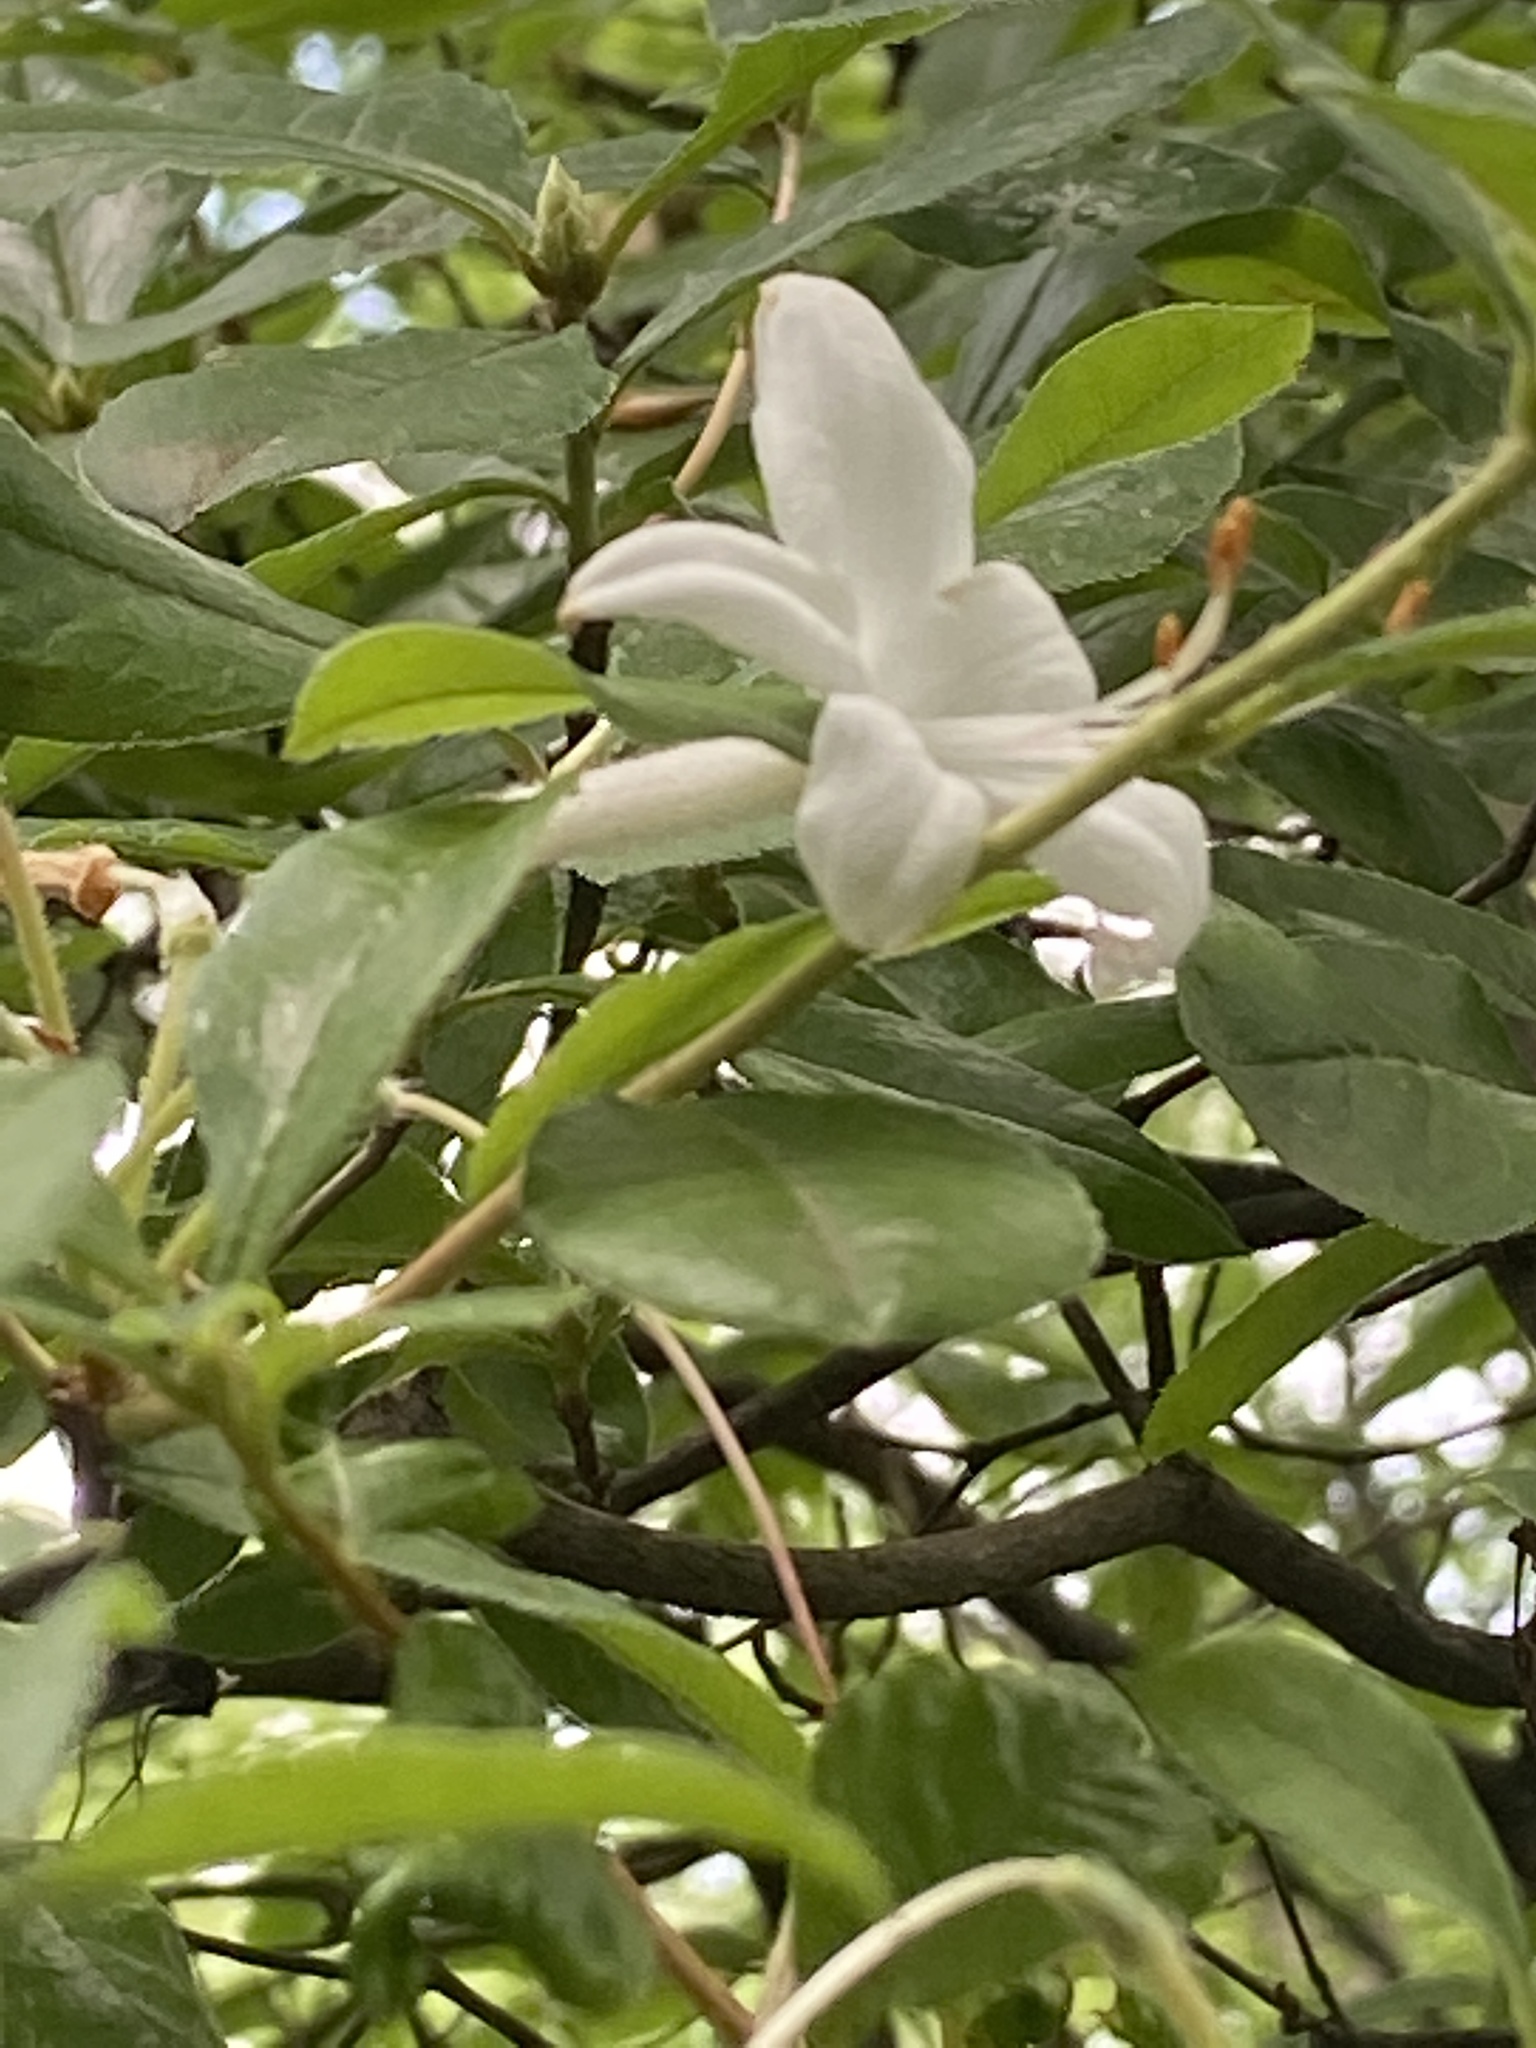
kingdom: Plantae
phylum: Tracheophyta
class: Magnoliopsida
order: Ericales
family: Ericaceae
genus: Rhododendron
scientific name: Rhododendron viscosum
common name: Clammy azalea
